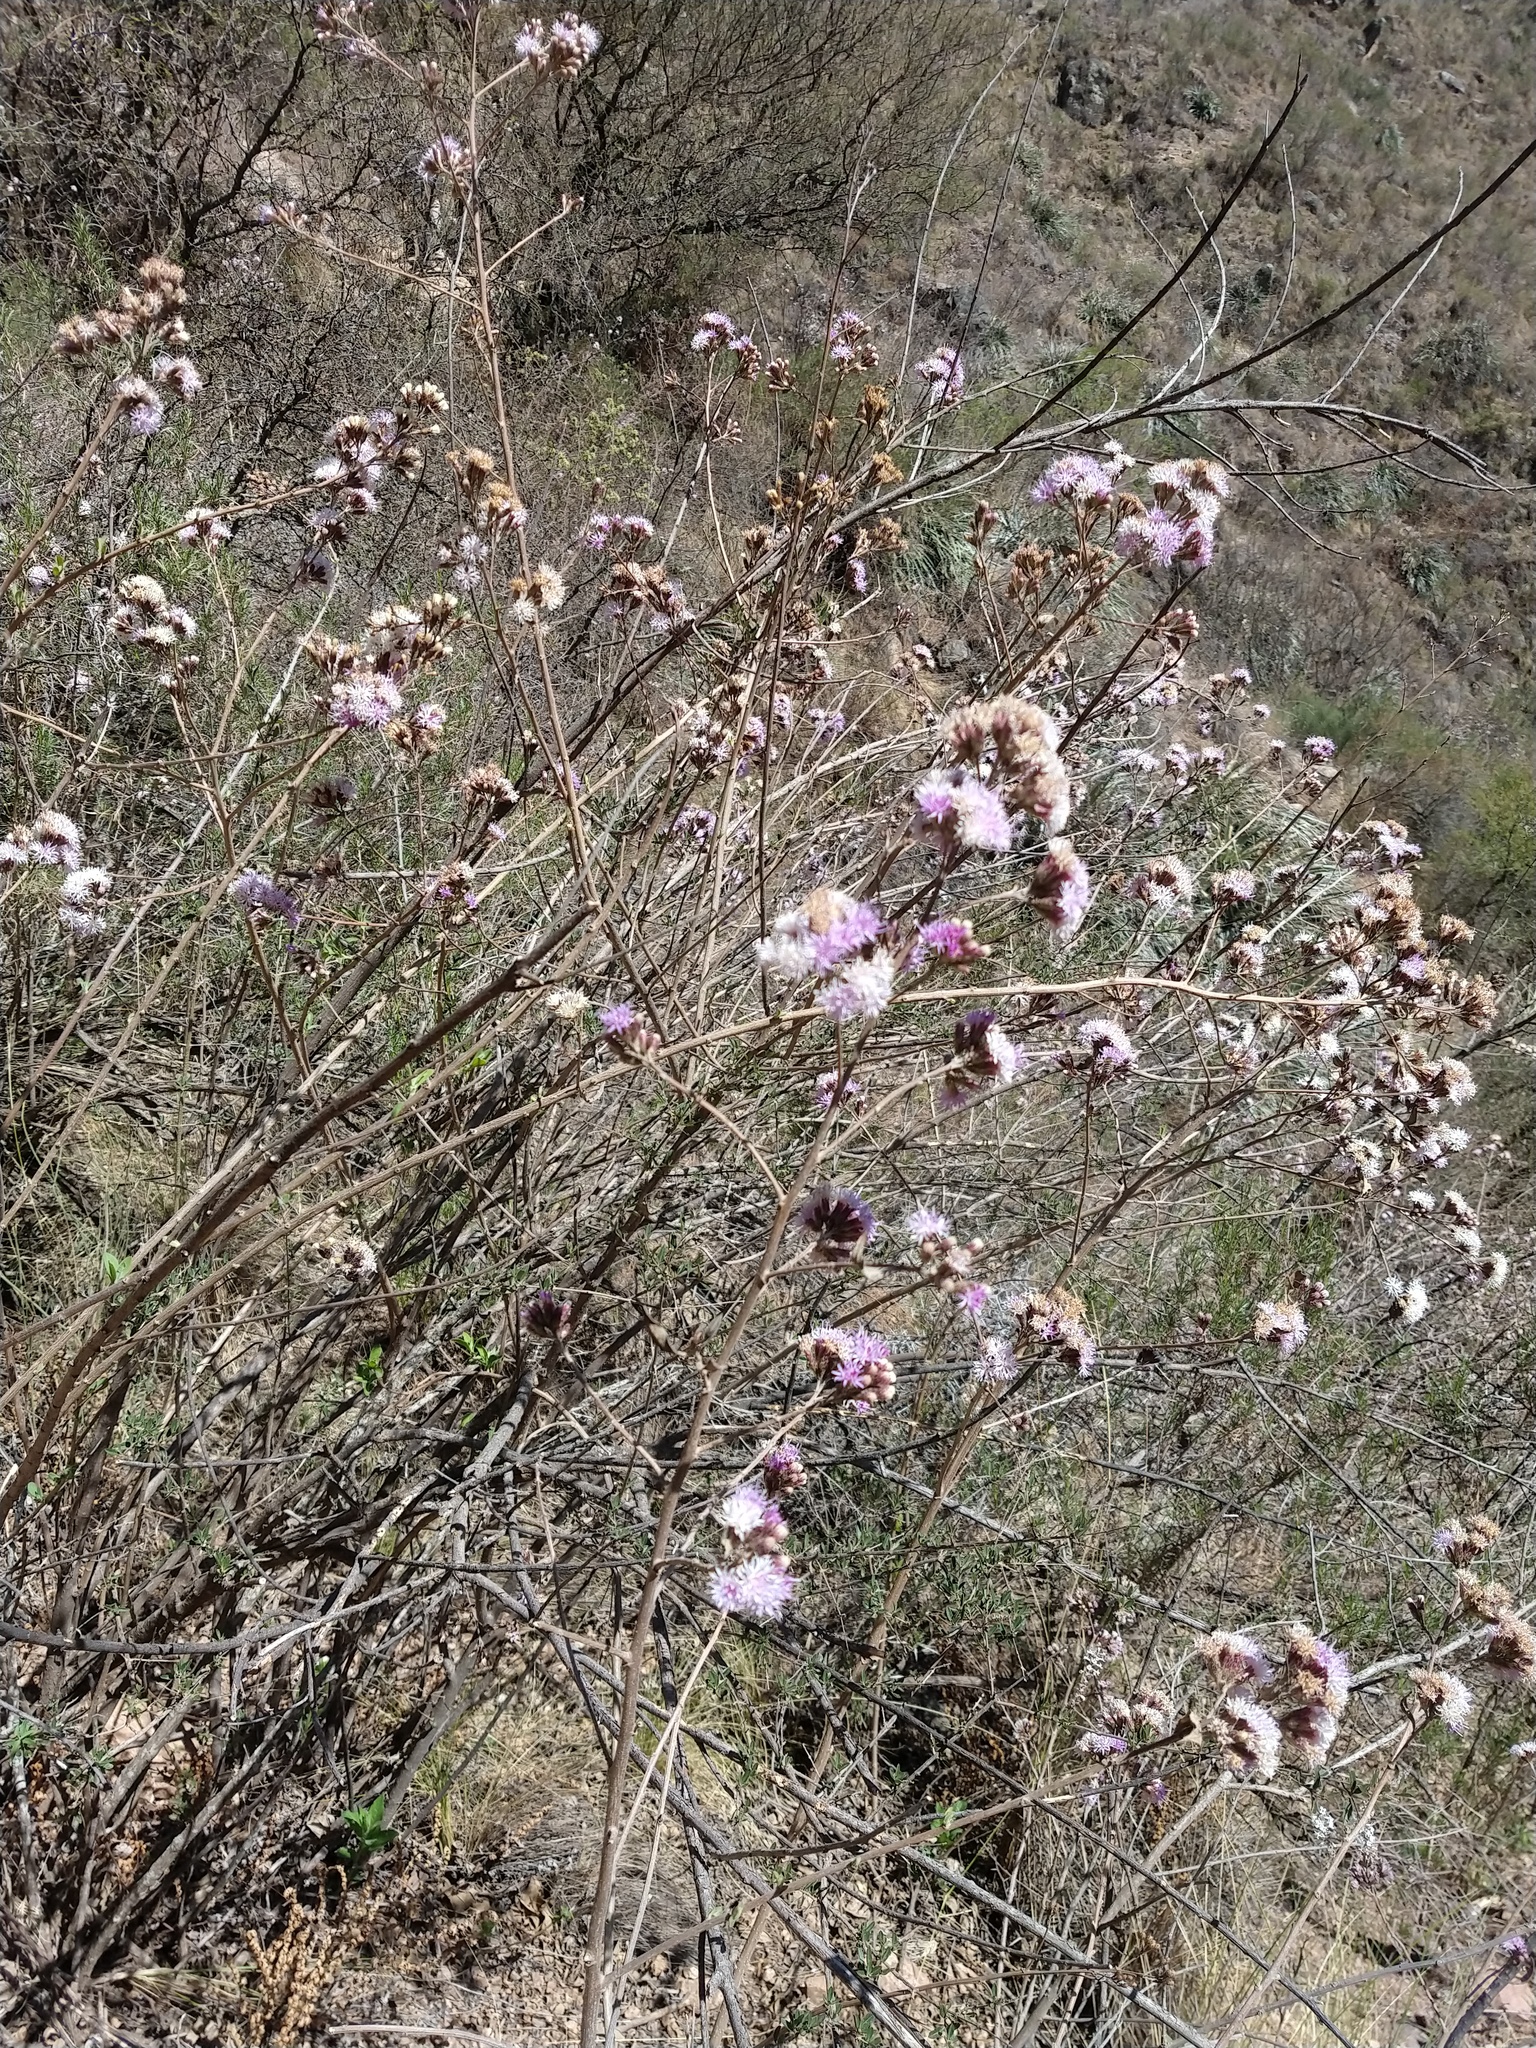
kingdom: Plantae
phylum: Tracheophyta
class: Magnoliopsida
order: Asterales
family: Asteraceae
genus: Vernonanthura
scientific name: Vernonanthura squamulosa
